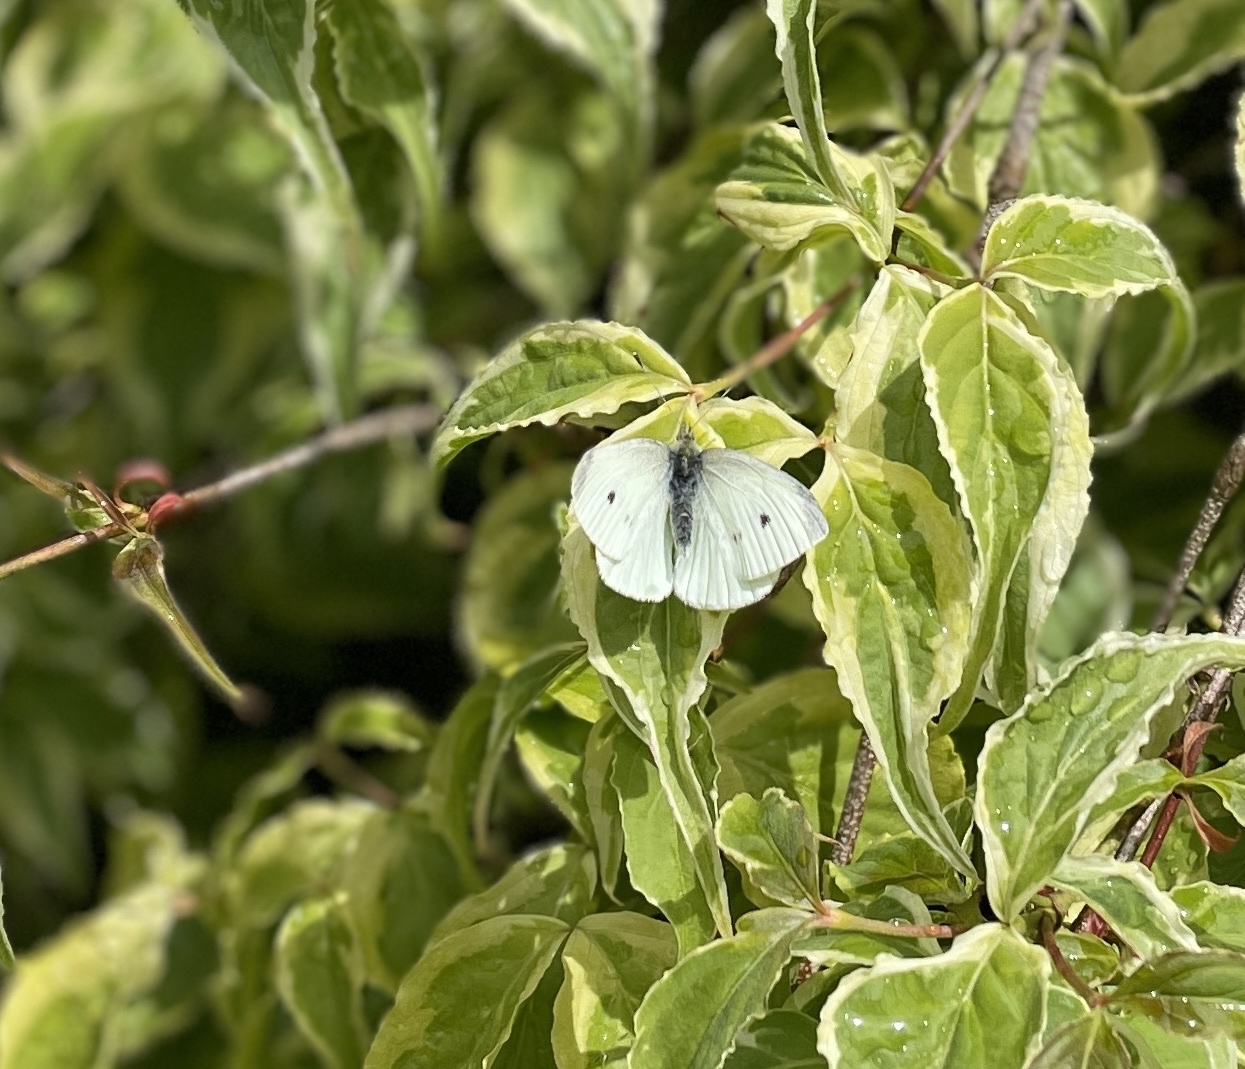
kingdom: Animalia
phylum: Arthropoda
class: Insecta
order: Lepidoptera
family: Pieridae
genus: Pieris
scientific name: Pieris rapae
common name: Small white
